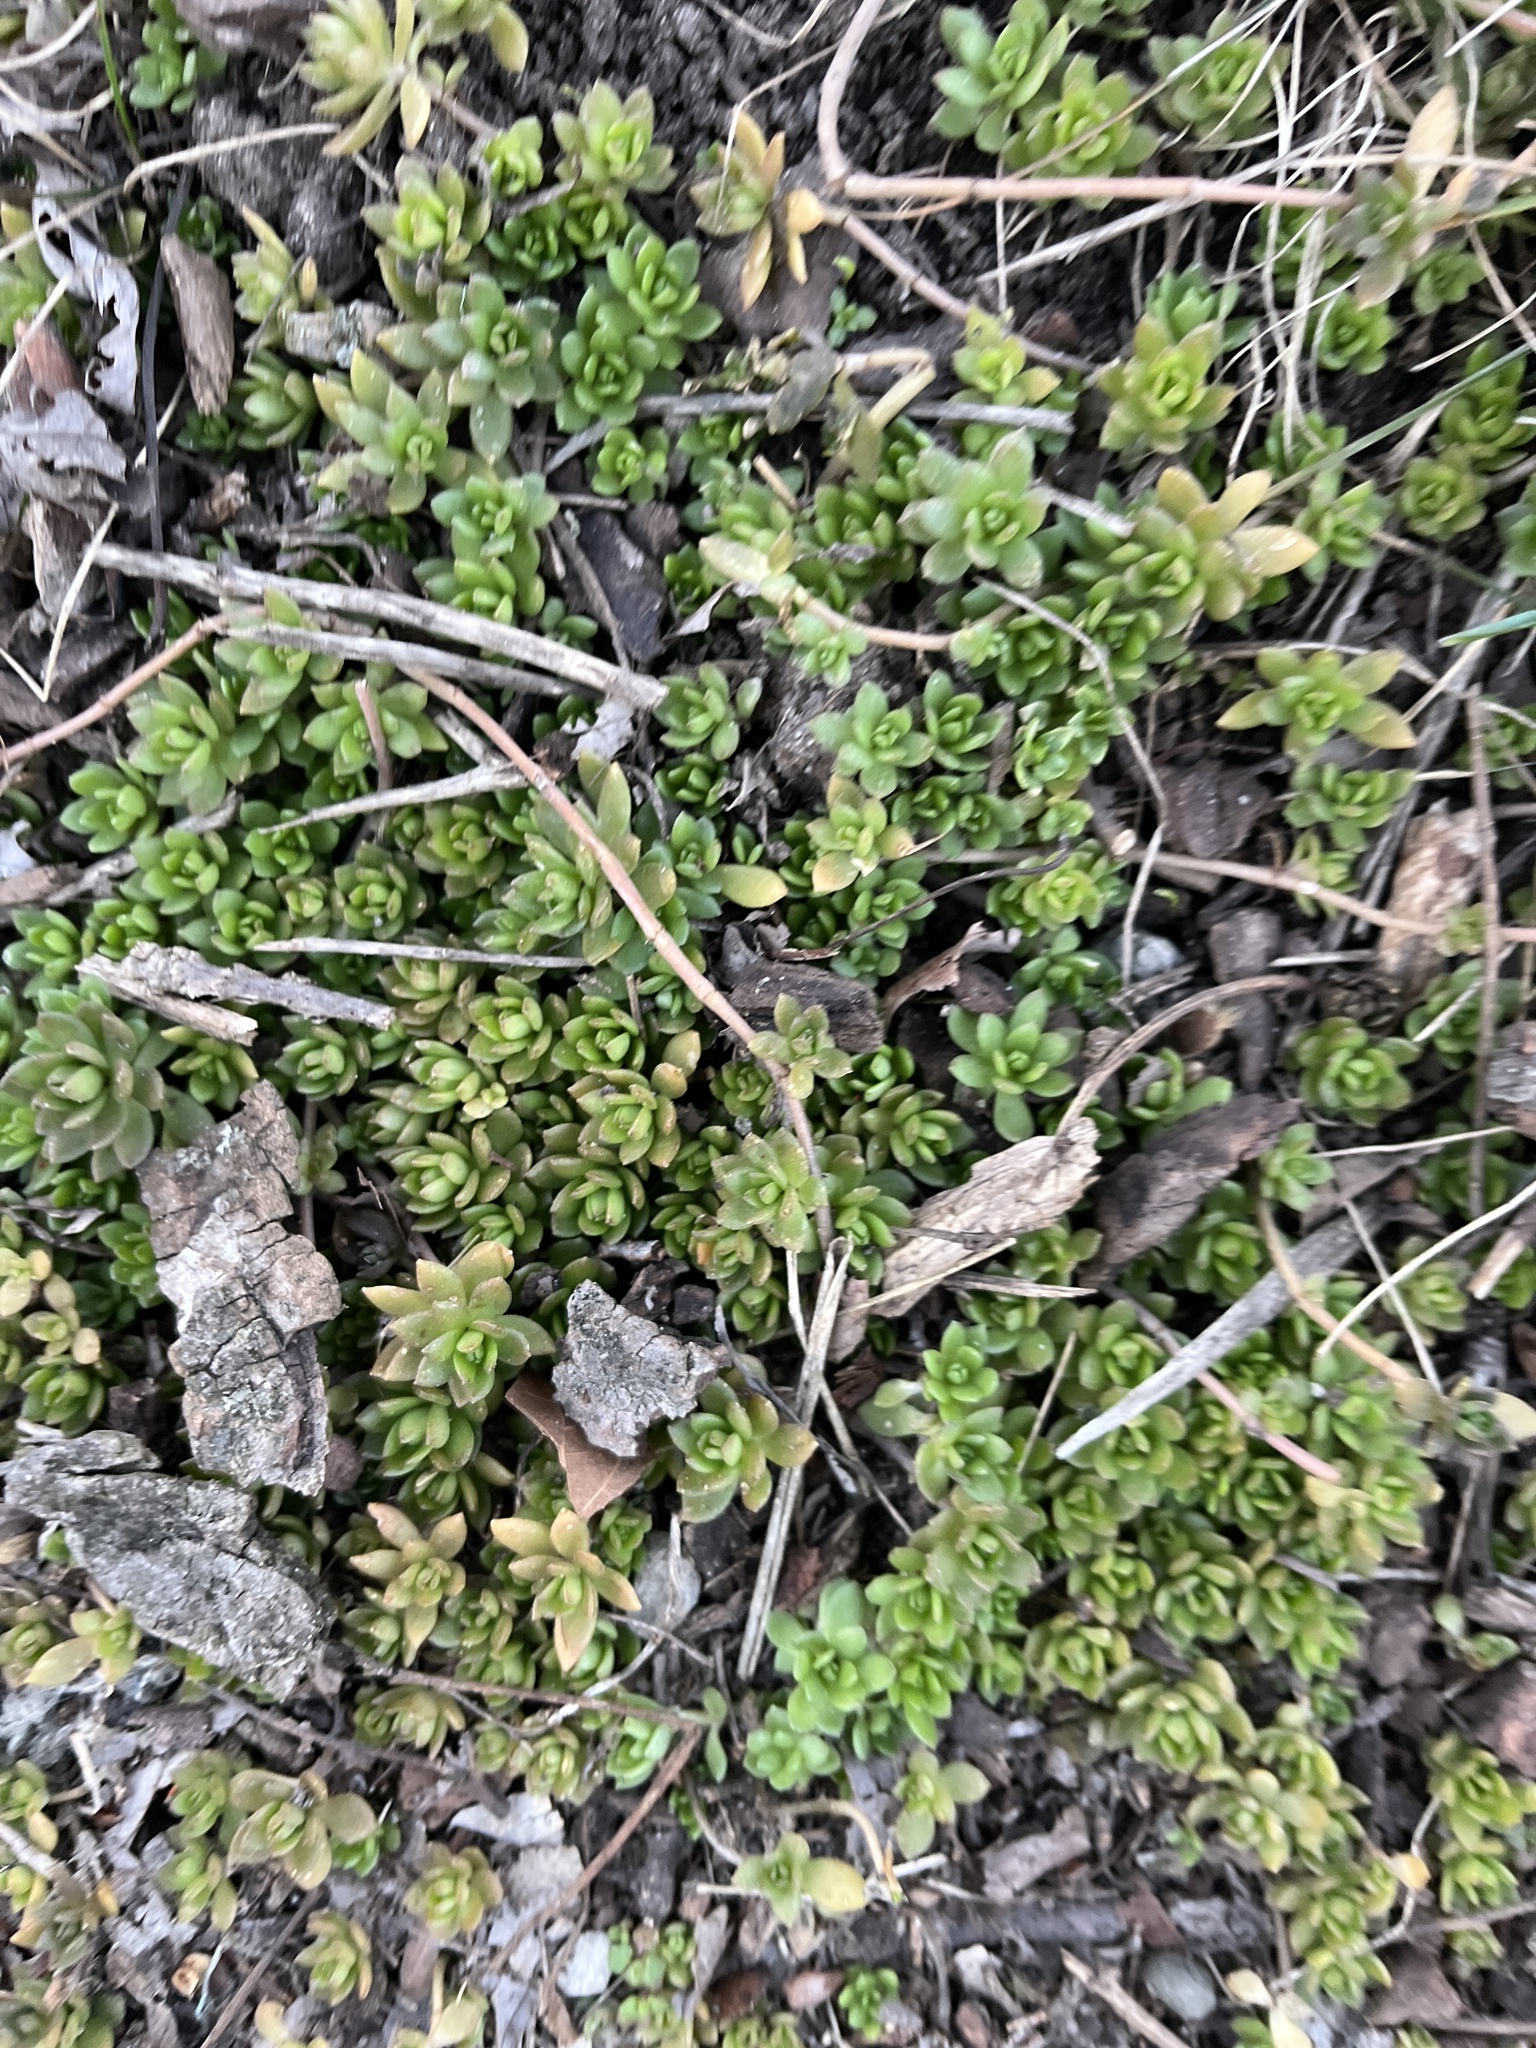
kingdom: Plantae
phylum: Tracheophyta
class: Magnoliopsida
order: Saxifragales
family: Crassulaceae
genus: Sedum
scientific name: Sedum sarmentosum
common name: Stringy stonecrop
